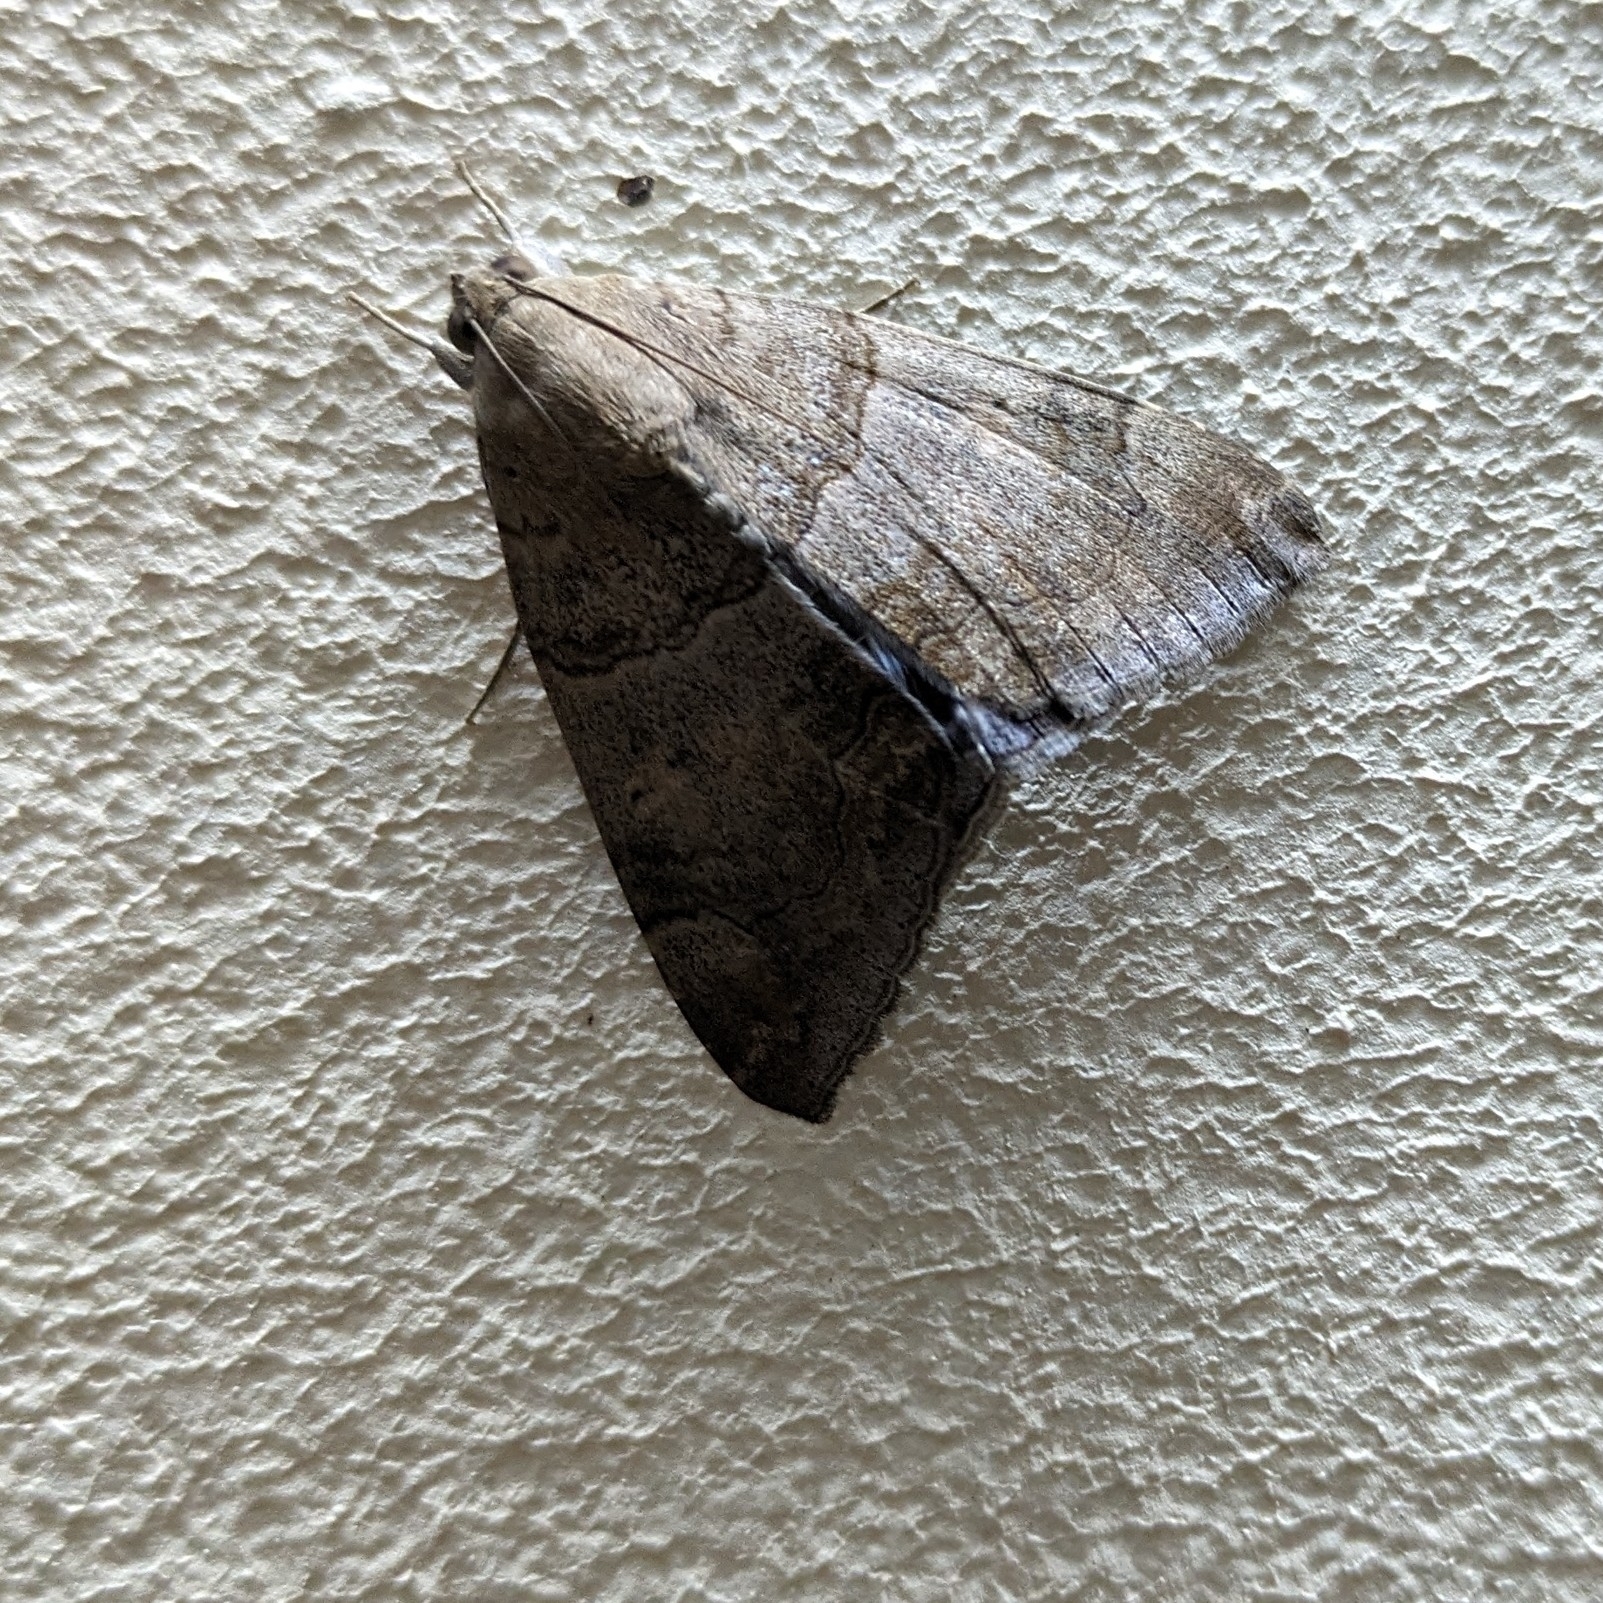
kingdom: Animalia
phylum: Arthropoda
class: Insecta
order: Lepidoptera
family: Erebidae
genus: Achaea
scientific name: Achaea janata
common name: Croton caterpillar
